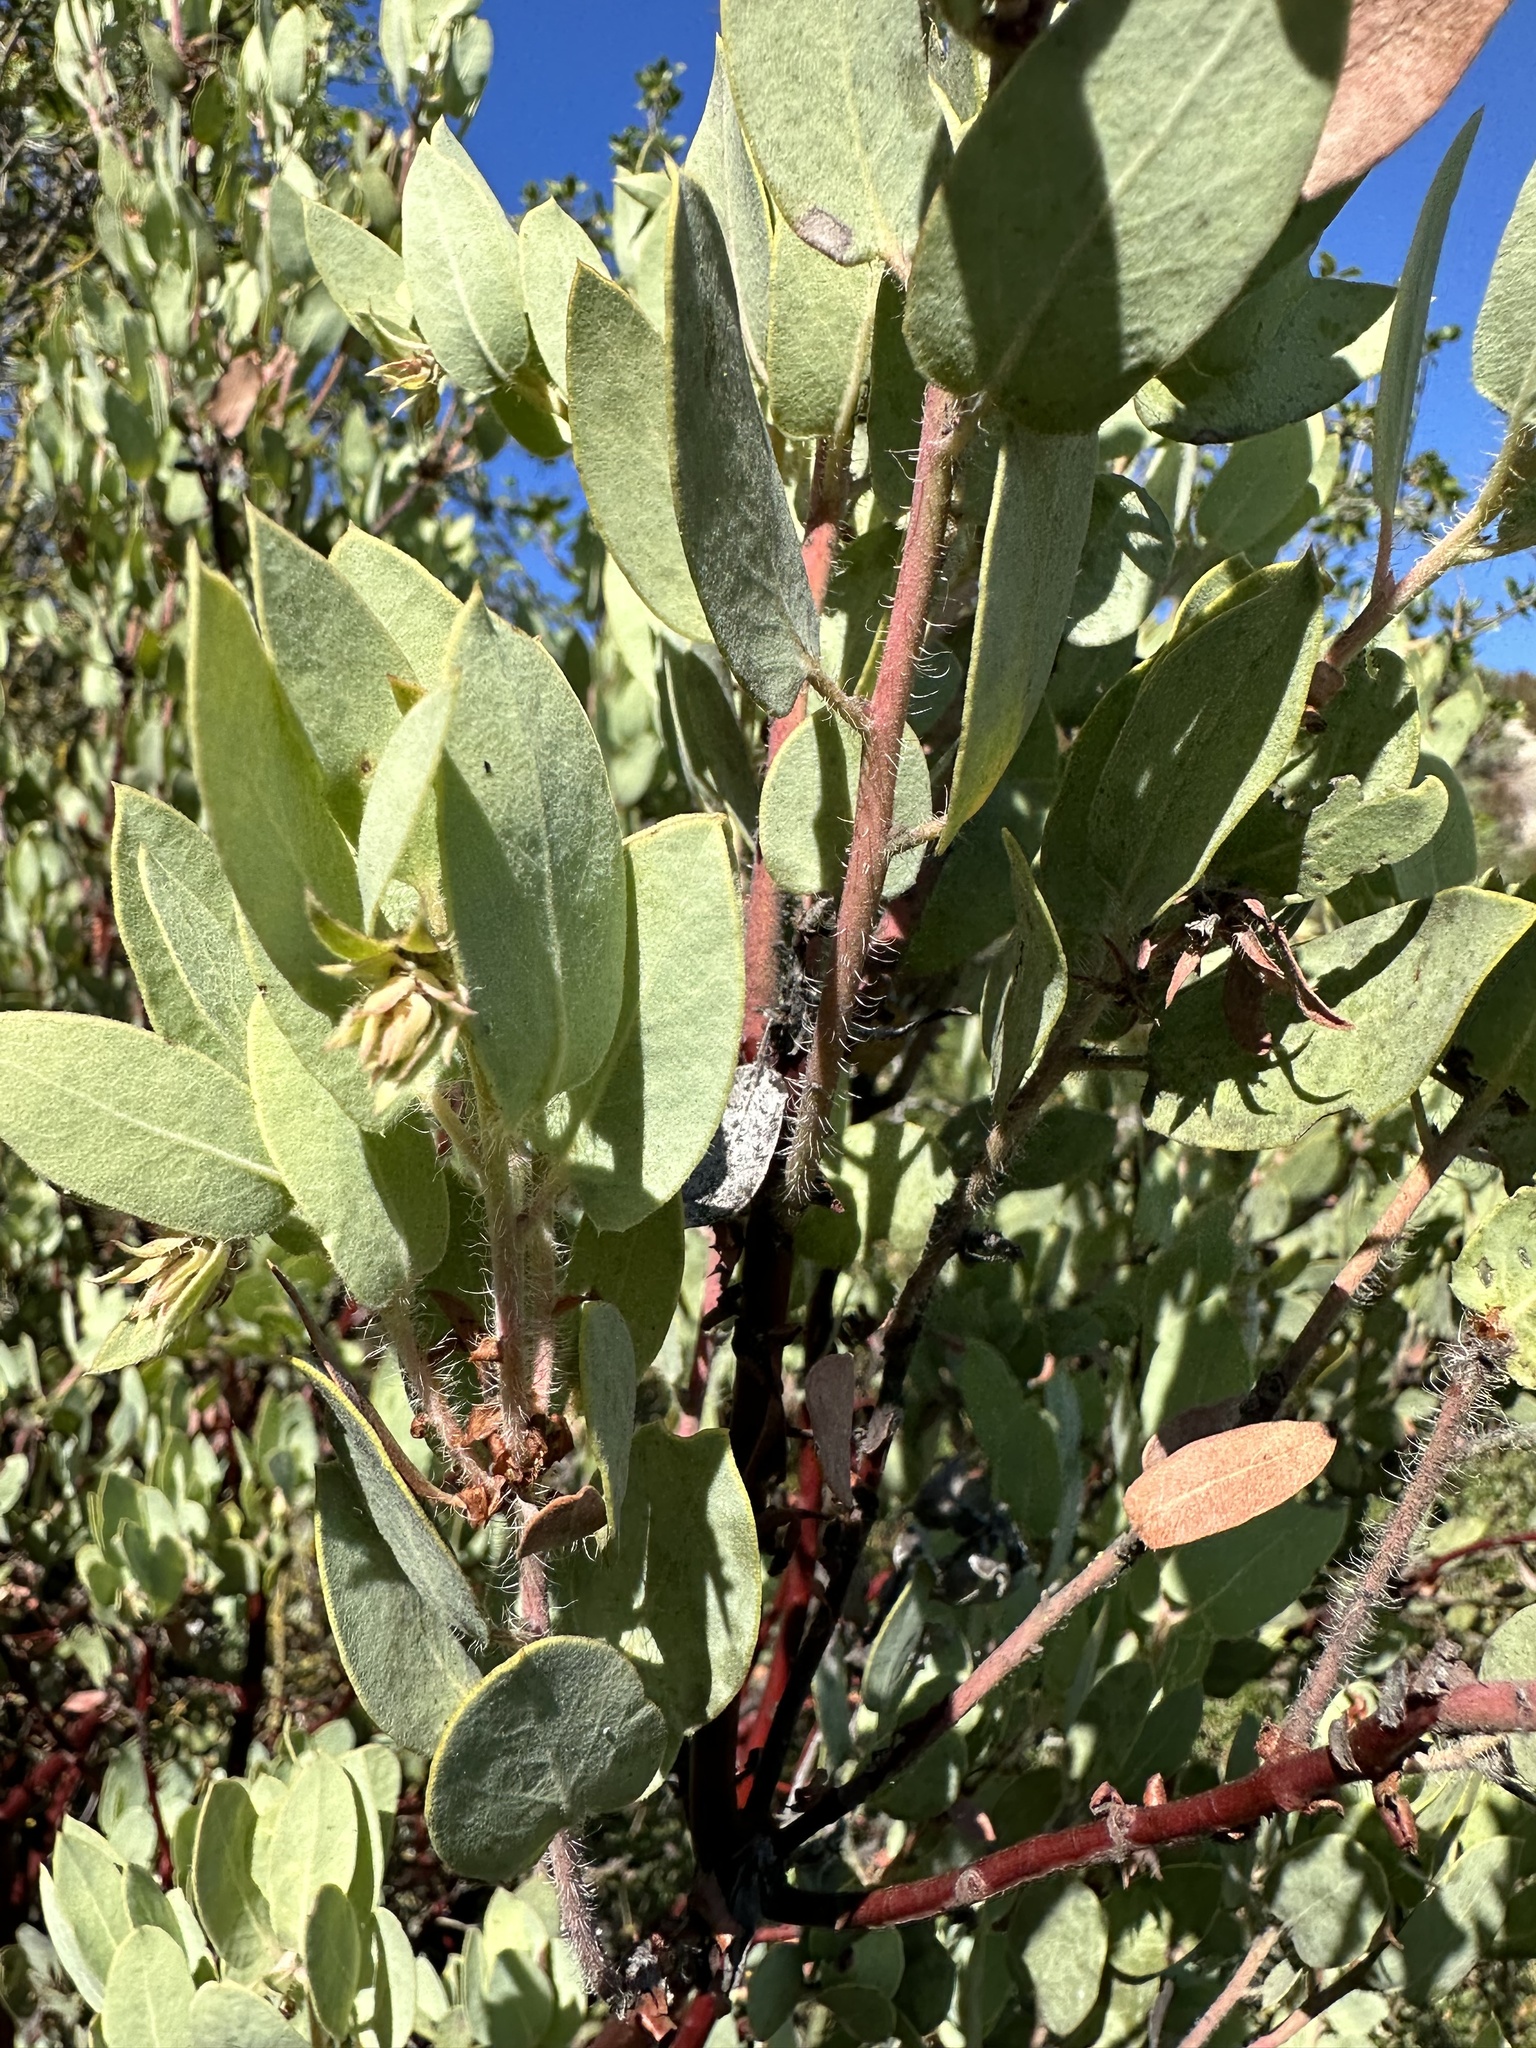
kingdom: Plantae
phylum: Tracheophyta
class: Magnoliopsida
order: Ericales
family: Ericaceae
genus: Arctostaphylos
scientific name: Arctostaphylos pilosula
